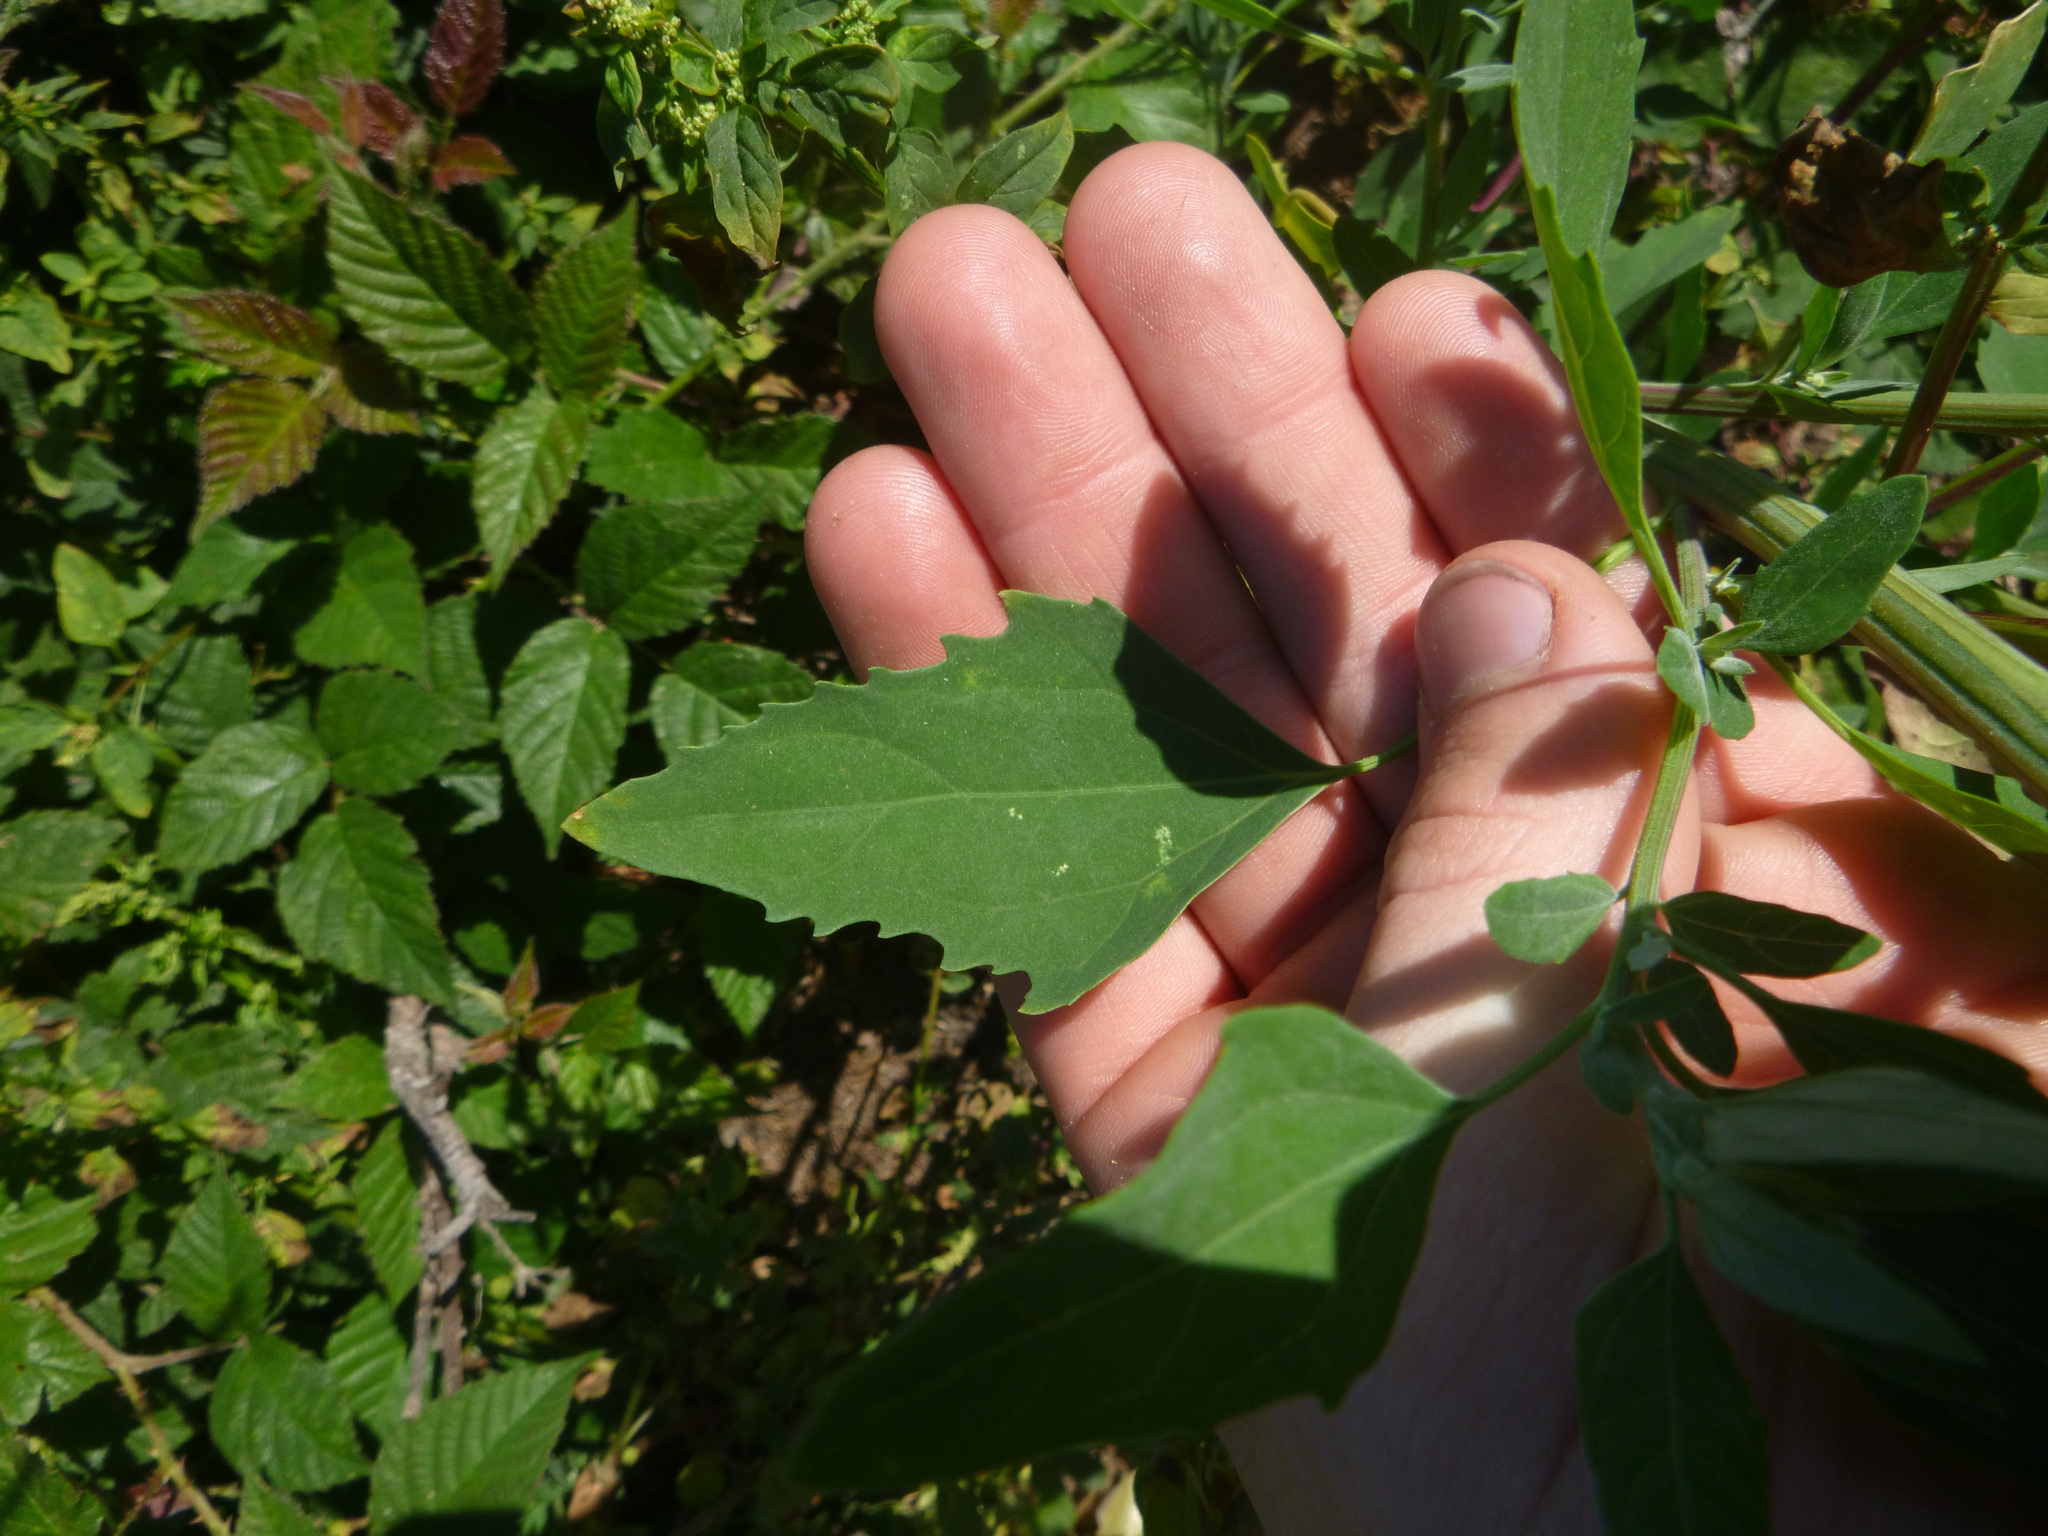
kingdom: Plantae
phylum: Tracheophyta
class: Magnoliopsida
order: Caryophyllales
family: Amaranthaceae
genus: Chenopodium
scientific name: Chenopodium album
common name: Fat-hen
